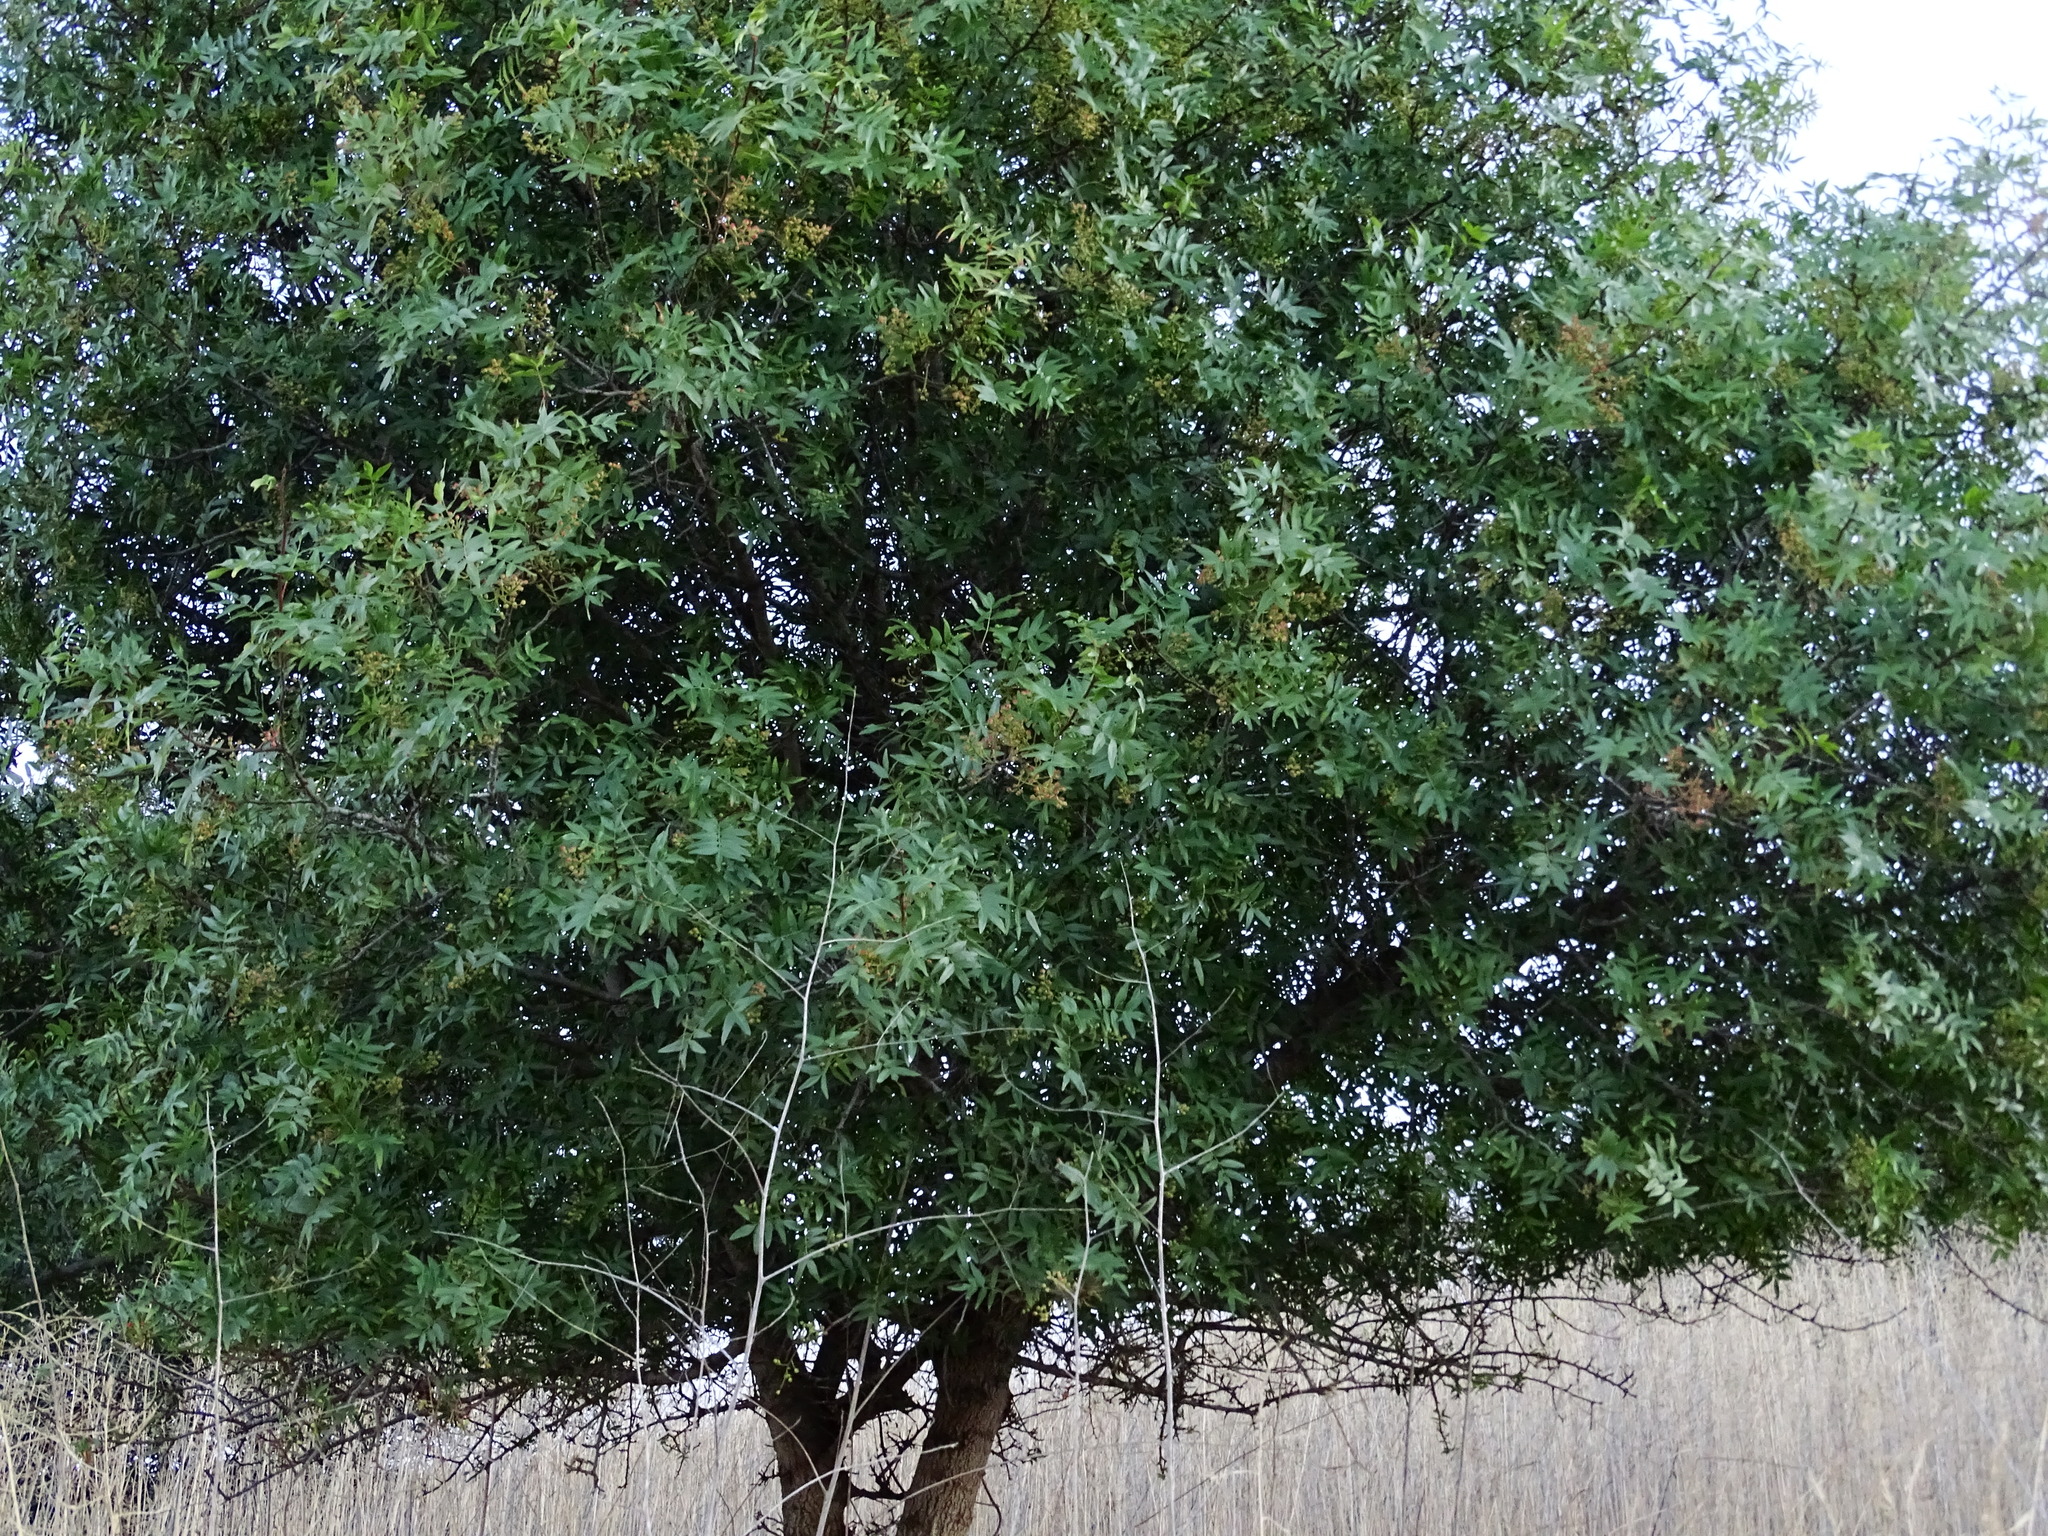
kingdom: Plantae
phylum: Tracheophyta
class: Magnoliopsida
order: Sapindales
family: Anacardiaceae
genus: Schinus
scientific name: Schinus terebinthifolia
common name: Brazilian peppertree
